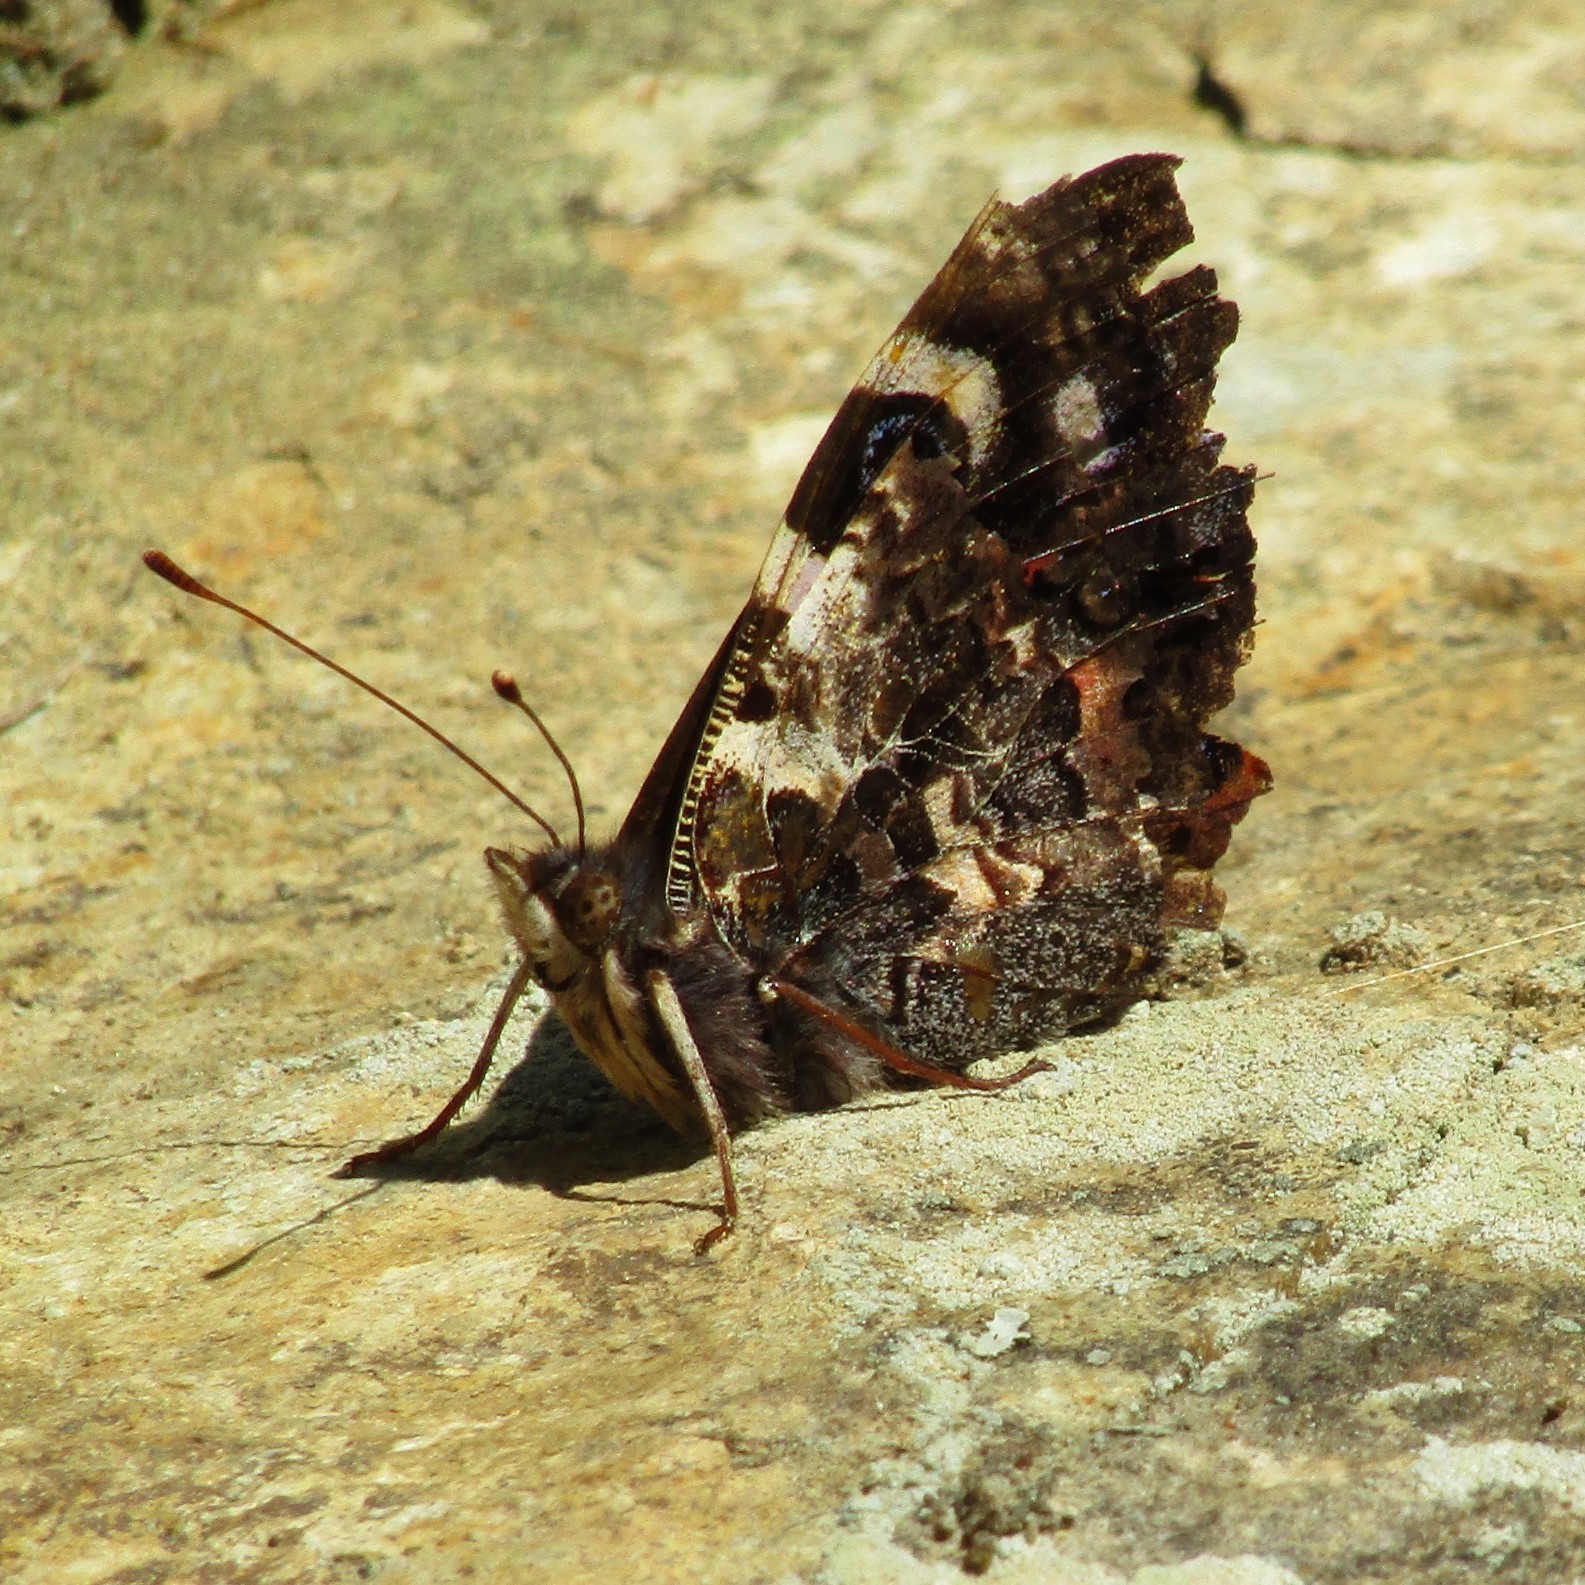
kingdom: Animalia
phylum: Arthropoda
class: Insecta
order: Lepidoptera
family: Nymphalidae
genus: Vanessa
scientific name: Vanessa gonerilla
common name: New zealand red admiral
